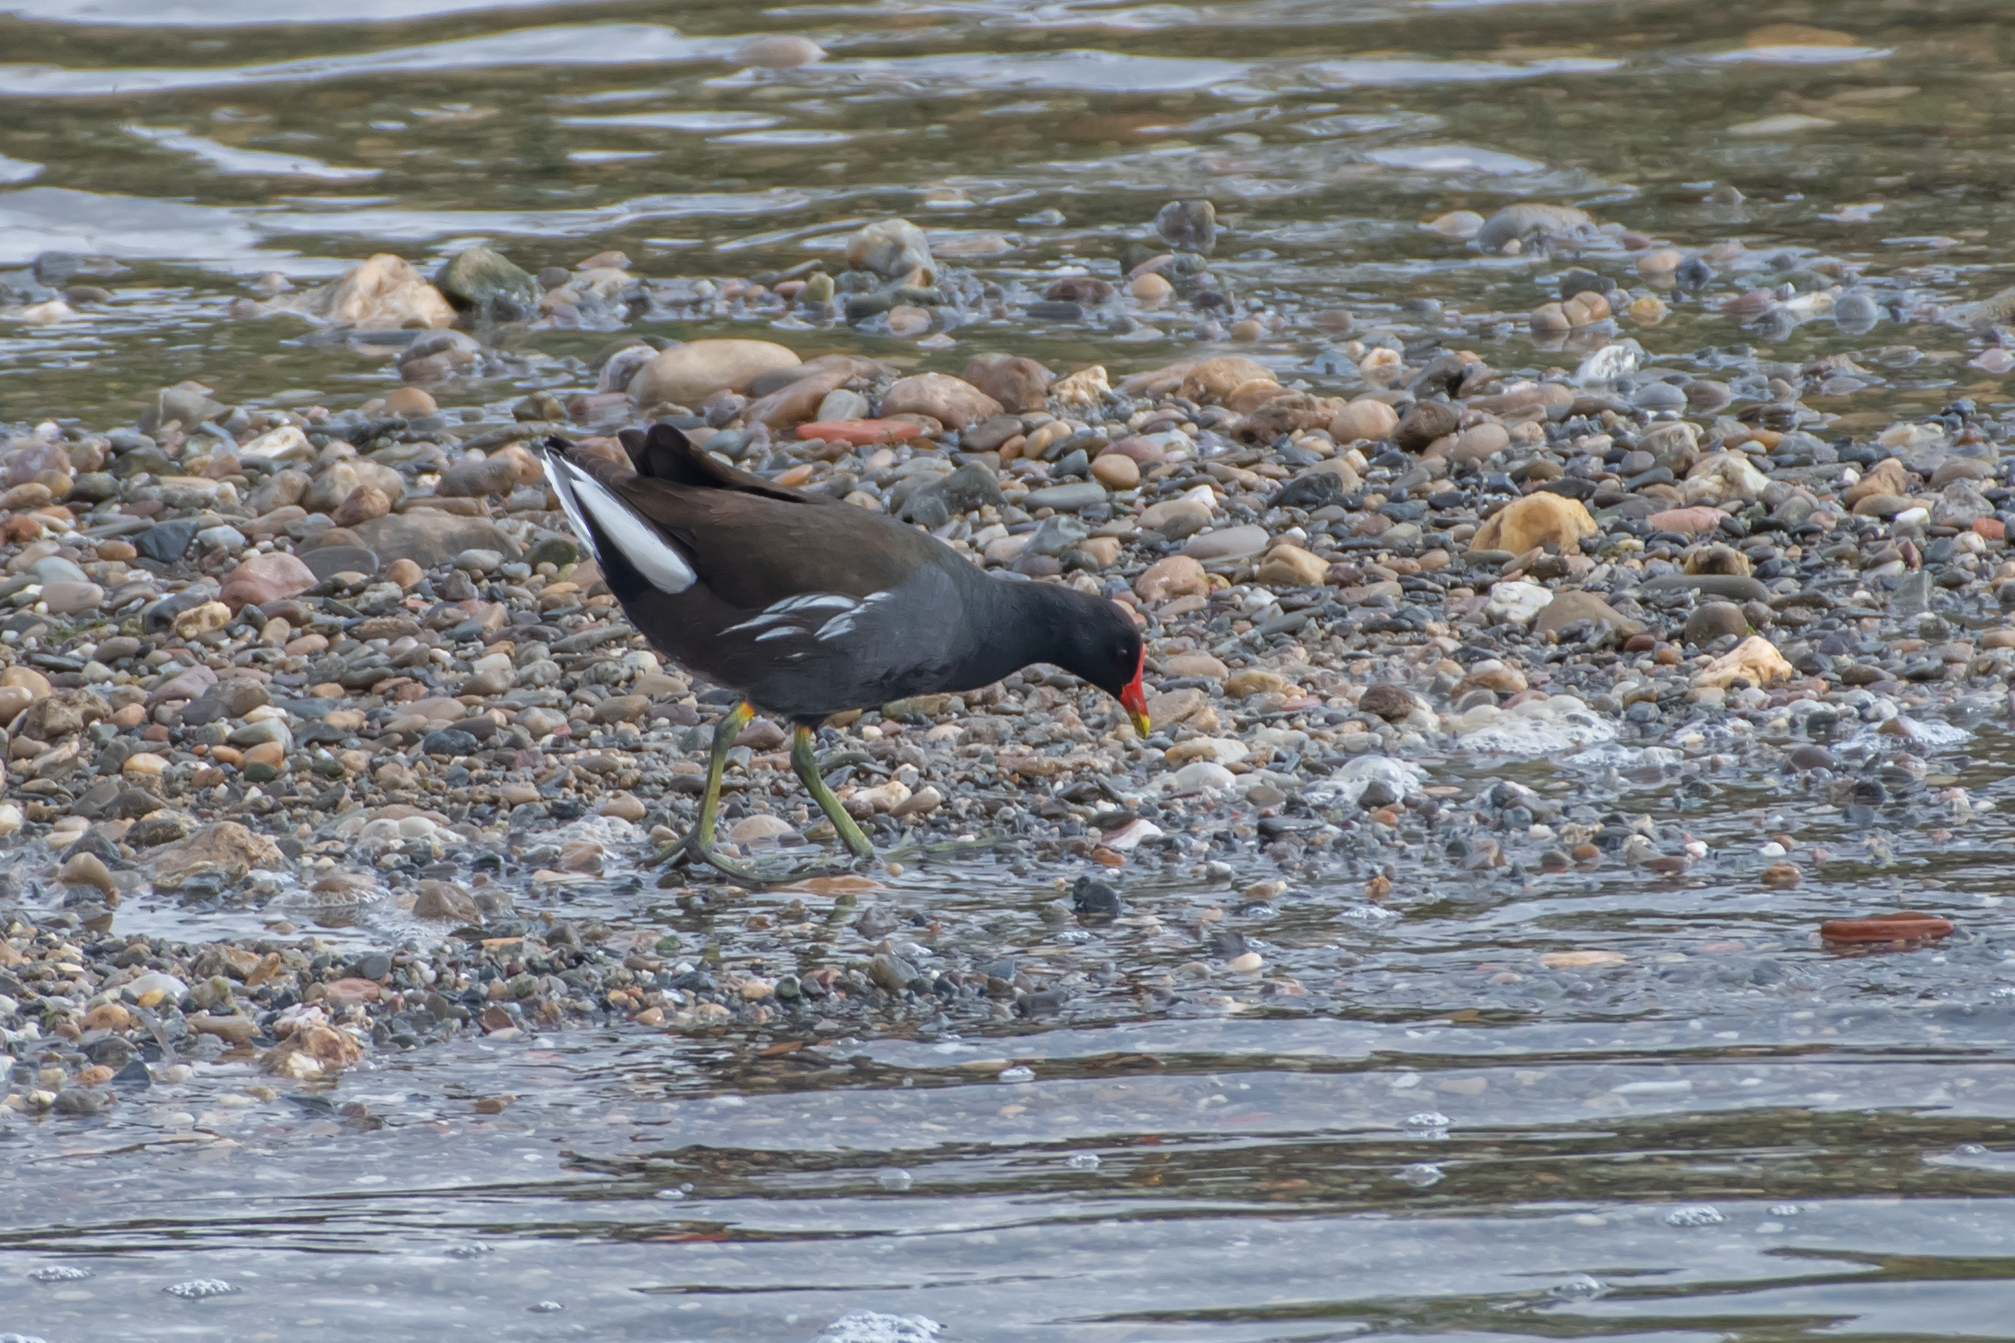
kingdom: Animalia
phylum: Chordata
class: Aves
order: Gruiformes
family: Rallidae
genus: Gallinula
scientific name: Gallinula chloropus
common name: Common moorhen
